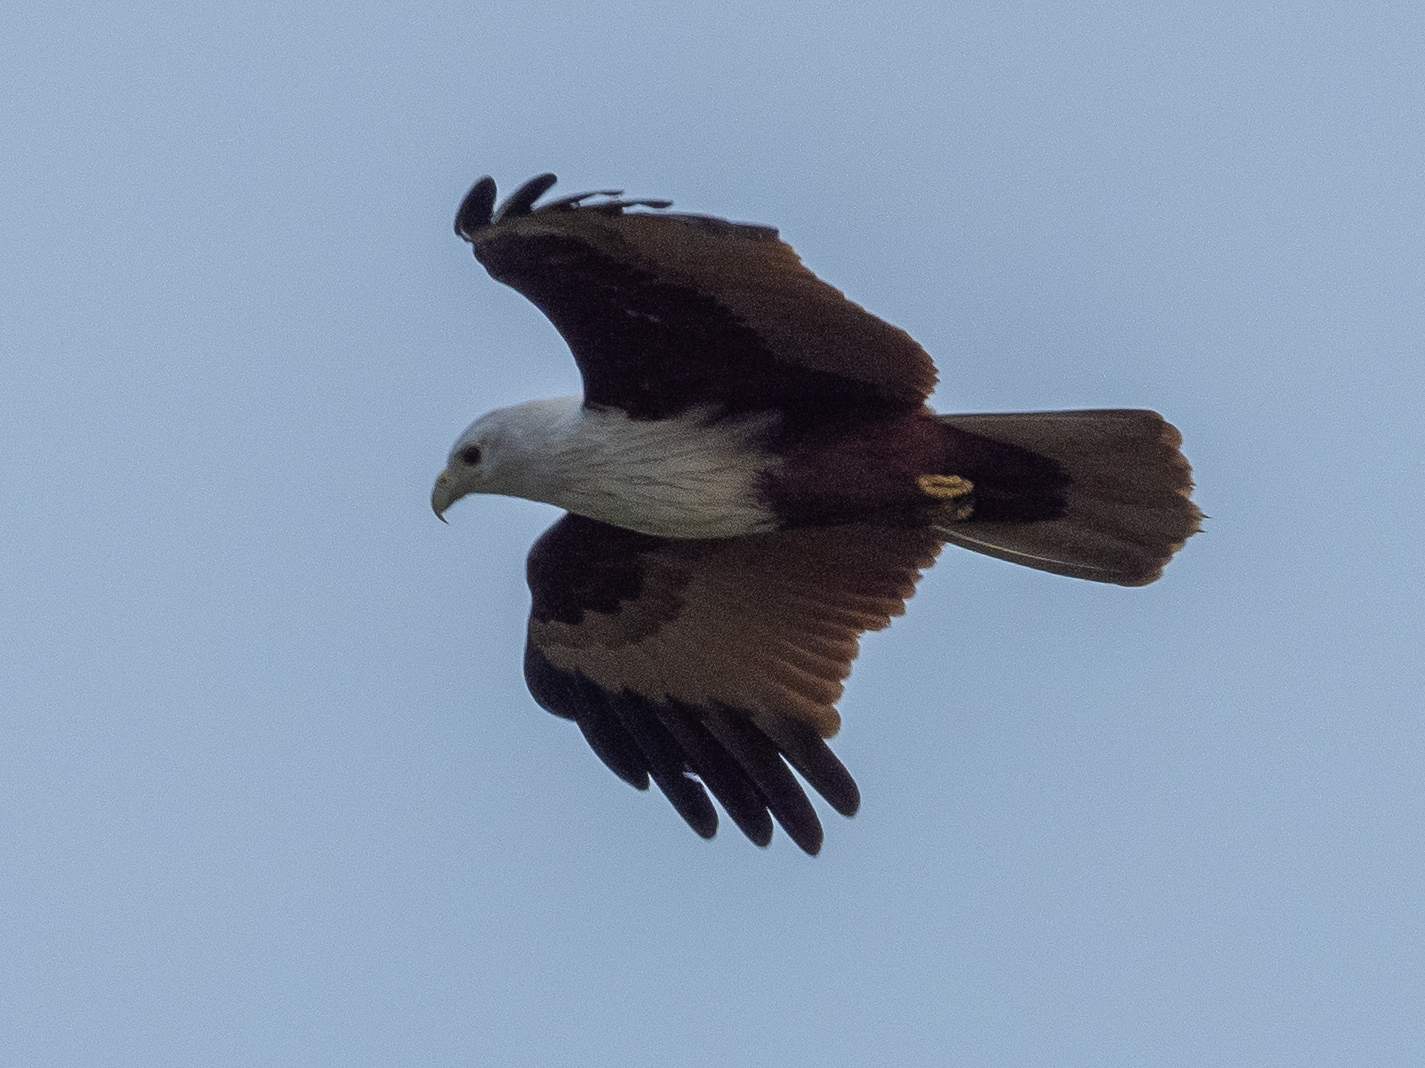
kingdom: Animalia
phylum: Chordata
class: Aves
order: Accipitriformes
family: Accipitridae
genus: Haliastur
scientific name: Haliastur indus
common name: Brahminy kite
